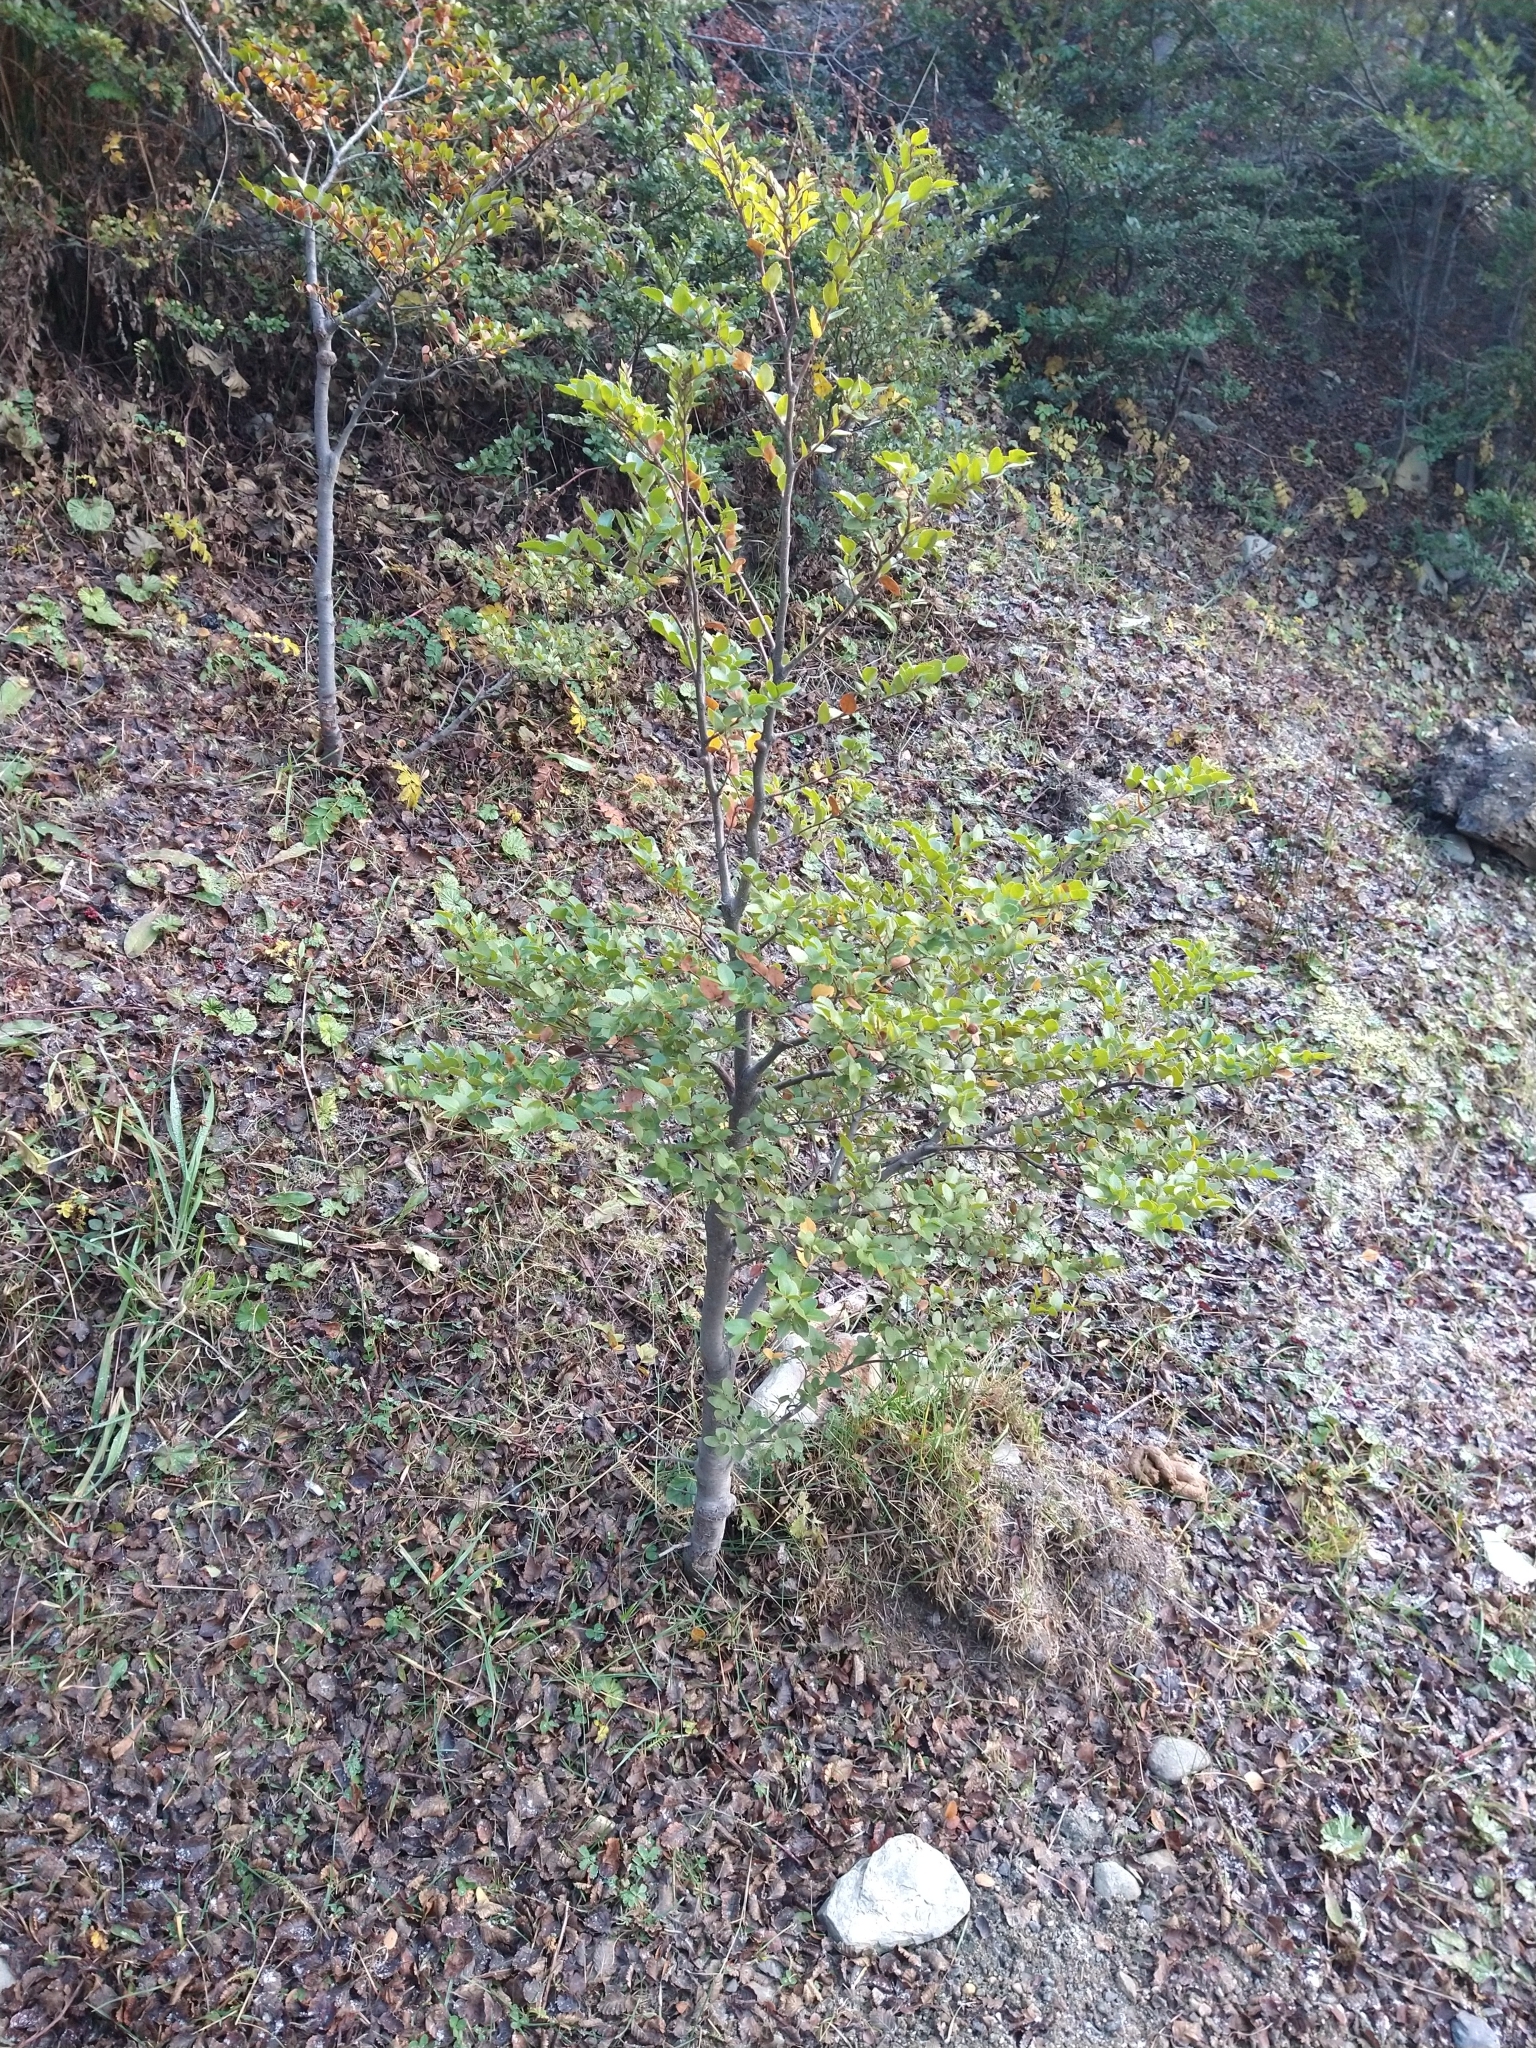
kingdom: Plantae
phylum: Tracheophyta
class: Magnoliopsida
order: Fagales
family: Nothofagaceae
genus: Nothofagus
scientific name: Nothofagus betuloides
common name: Magellan's beech
